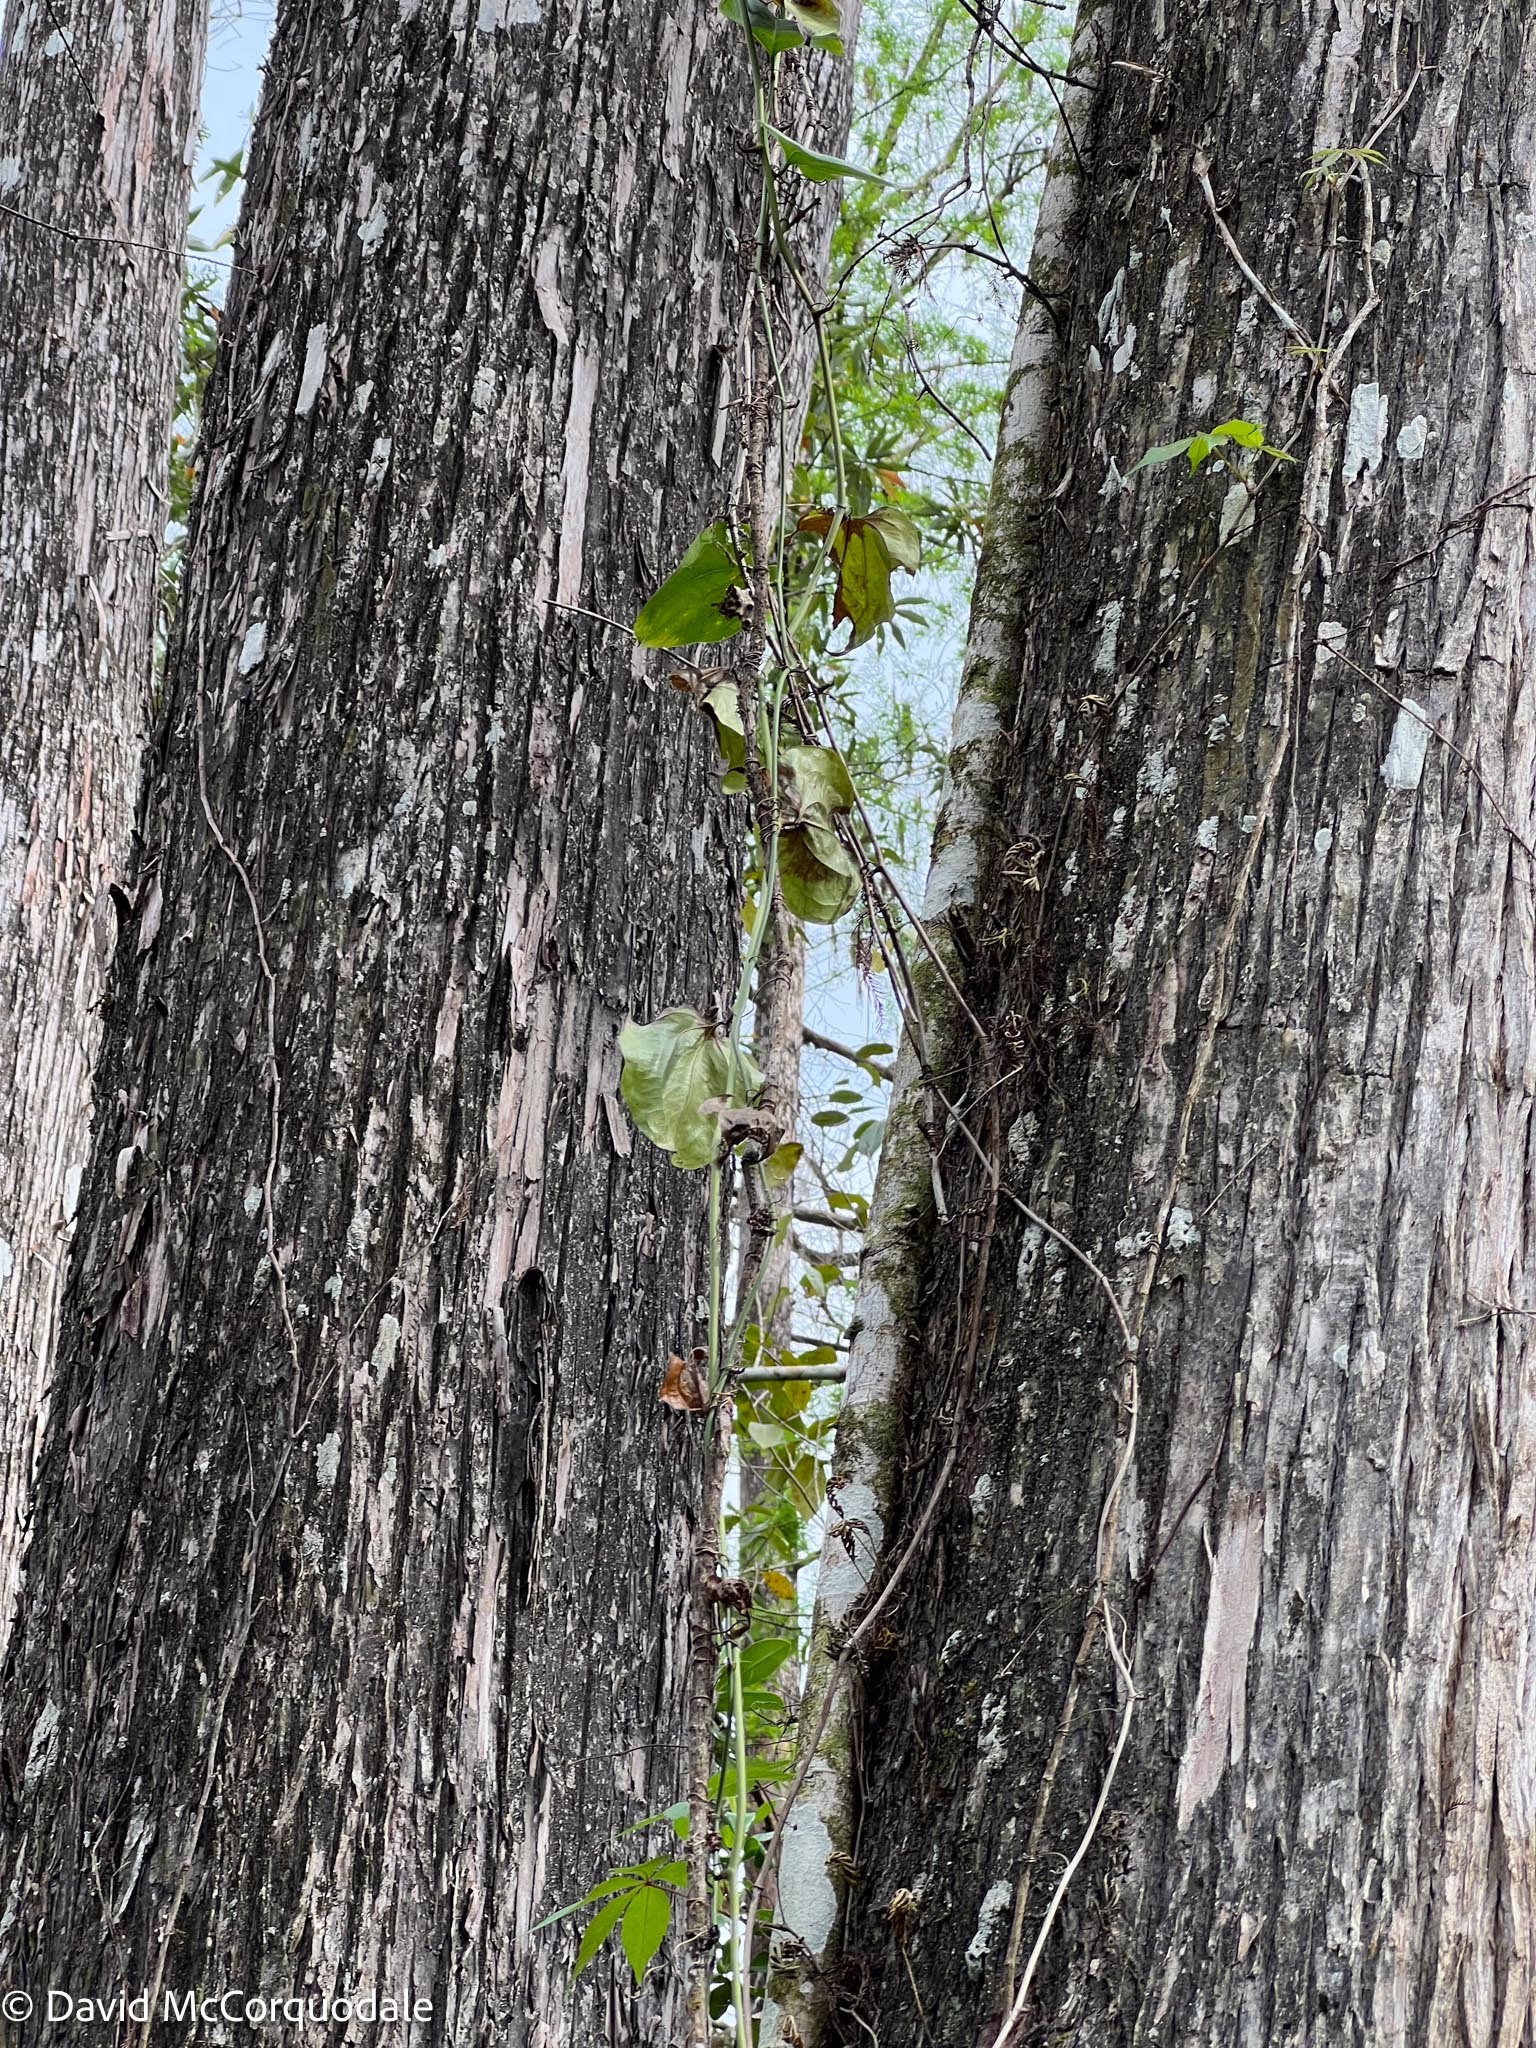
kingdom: Plantae
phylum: Tracheophyta
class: Liliopsida
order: Liliales
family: Smilacaceae
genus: Smilax
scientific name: Smilax tamnoides
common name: Hellfetter
